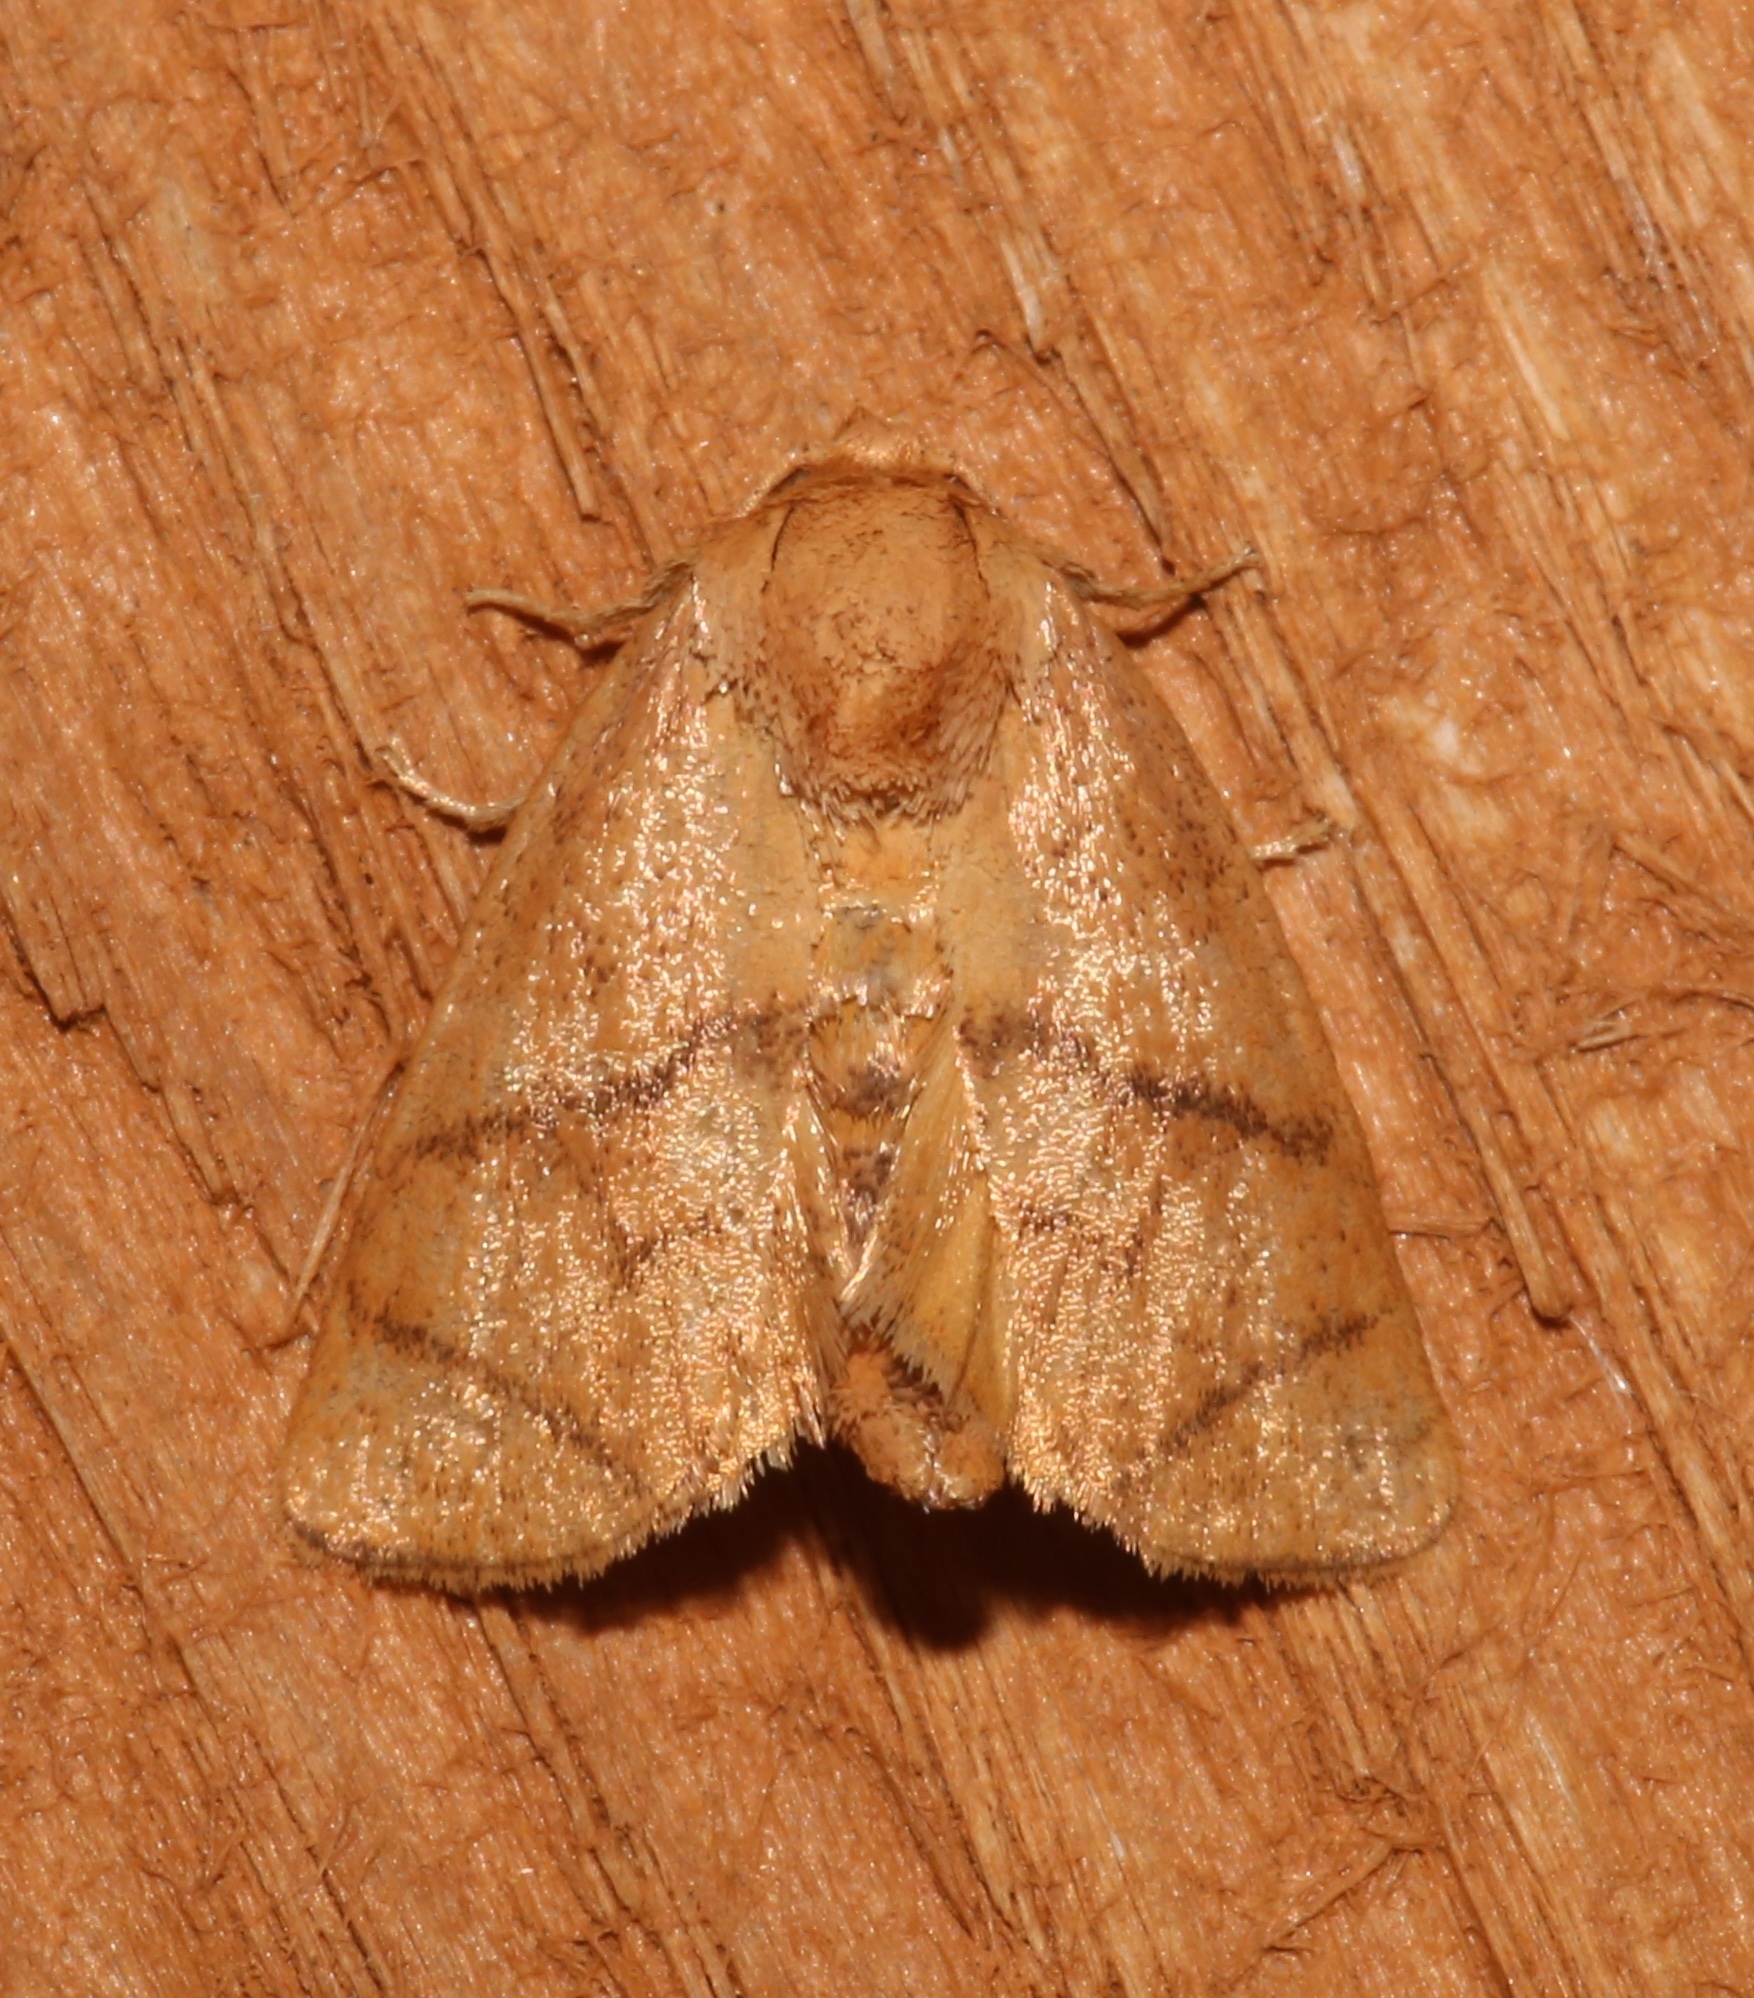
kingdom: Animalia
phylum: Arthropoda
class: Insecta
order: Lepidoptera
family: Limacodidae
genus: Apoda
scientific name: Apoda y-inversa
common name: Yellow-collared slug moth
